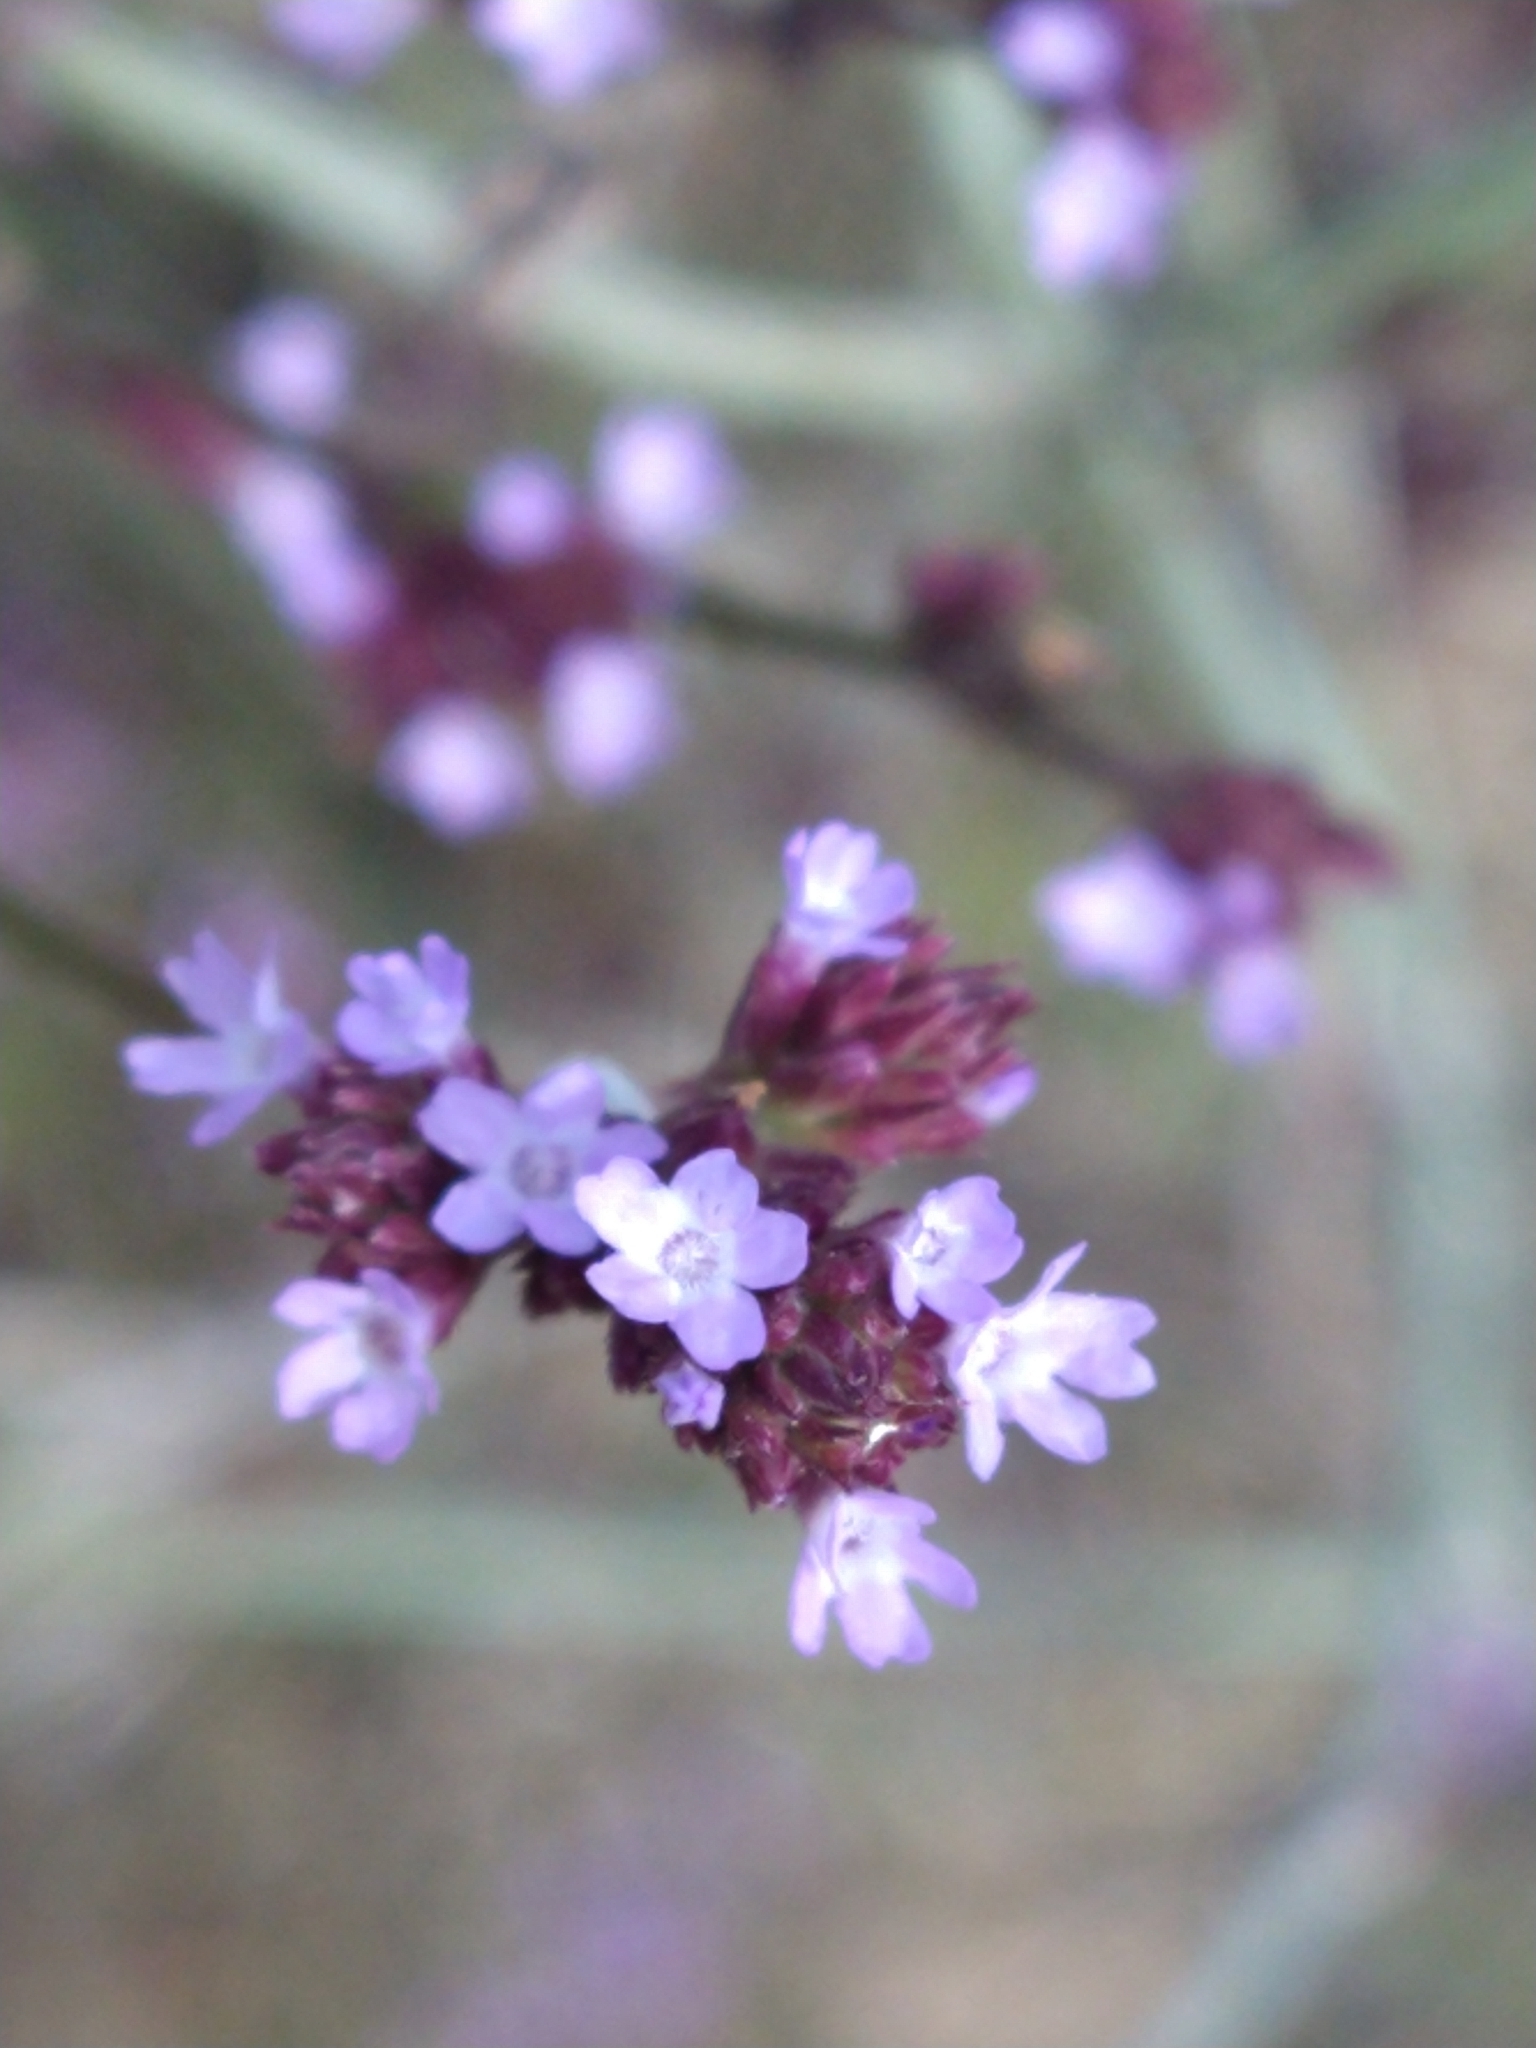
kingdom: Plantae
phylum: Tracheophyta
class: Magnoliopsida
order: Lamiales
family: Verbenaceae
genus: Verbena
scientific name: Verbena bonariensis
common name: Purpletop vervain
